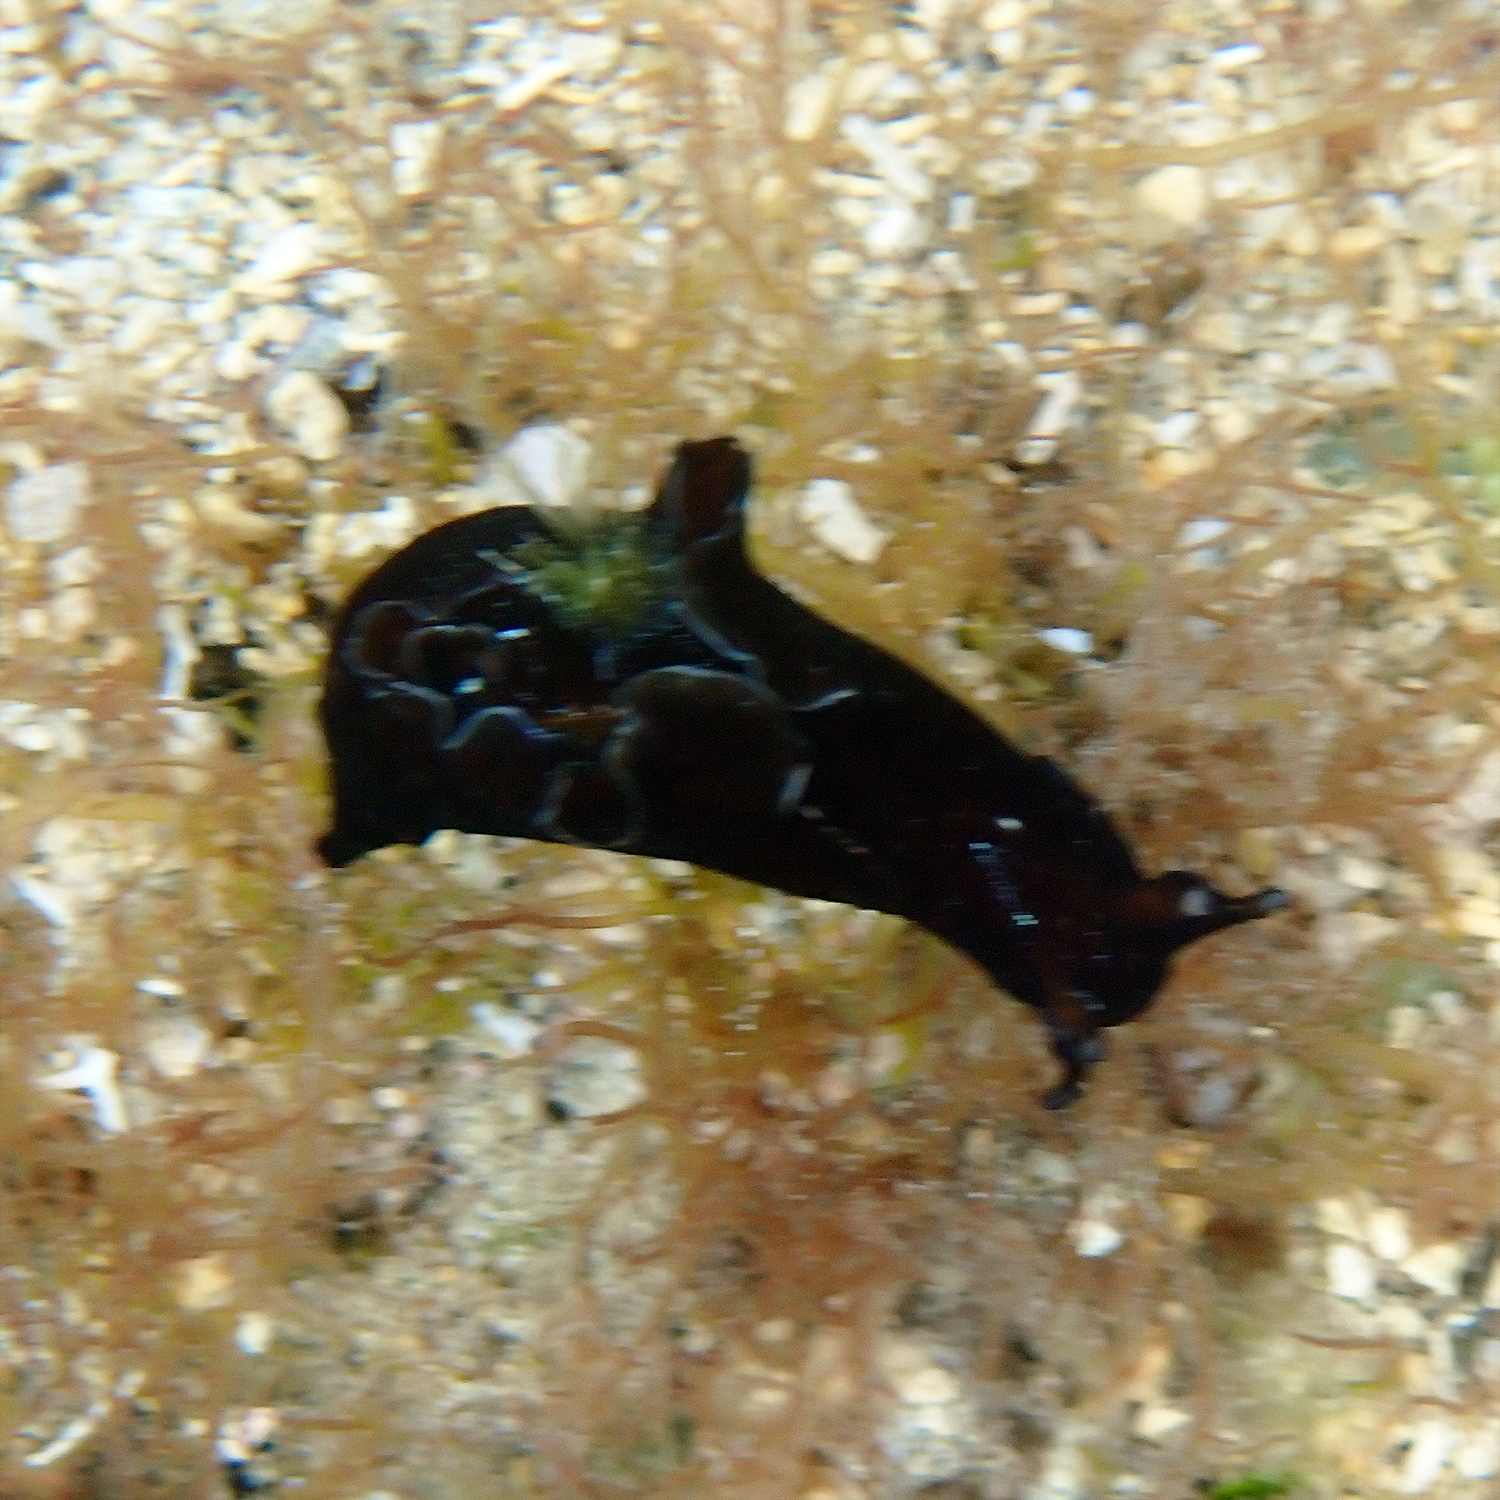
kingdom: Animalia
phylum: Mollusca
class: Gastropoda
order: Aplysiida
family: Aplysiidae
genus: Aplysia
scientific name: Aplysia nigrocincta
